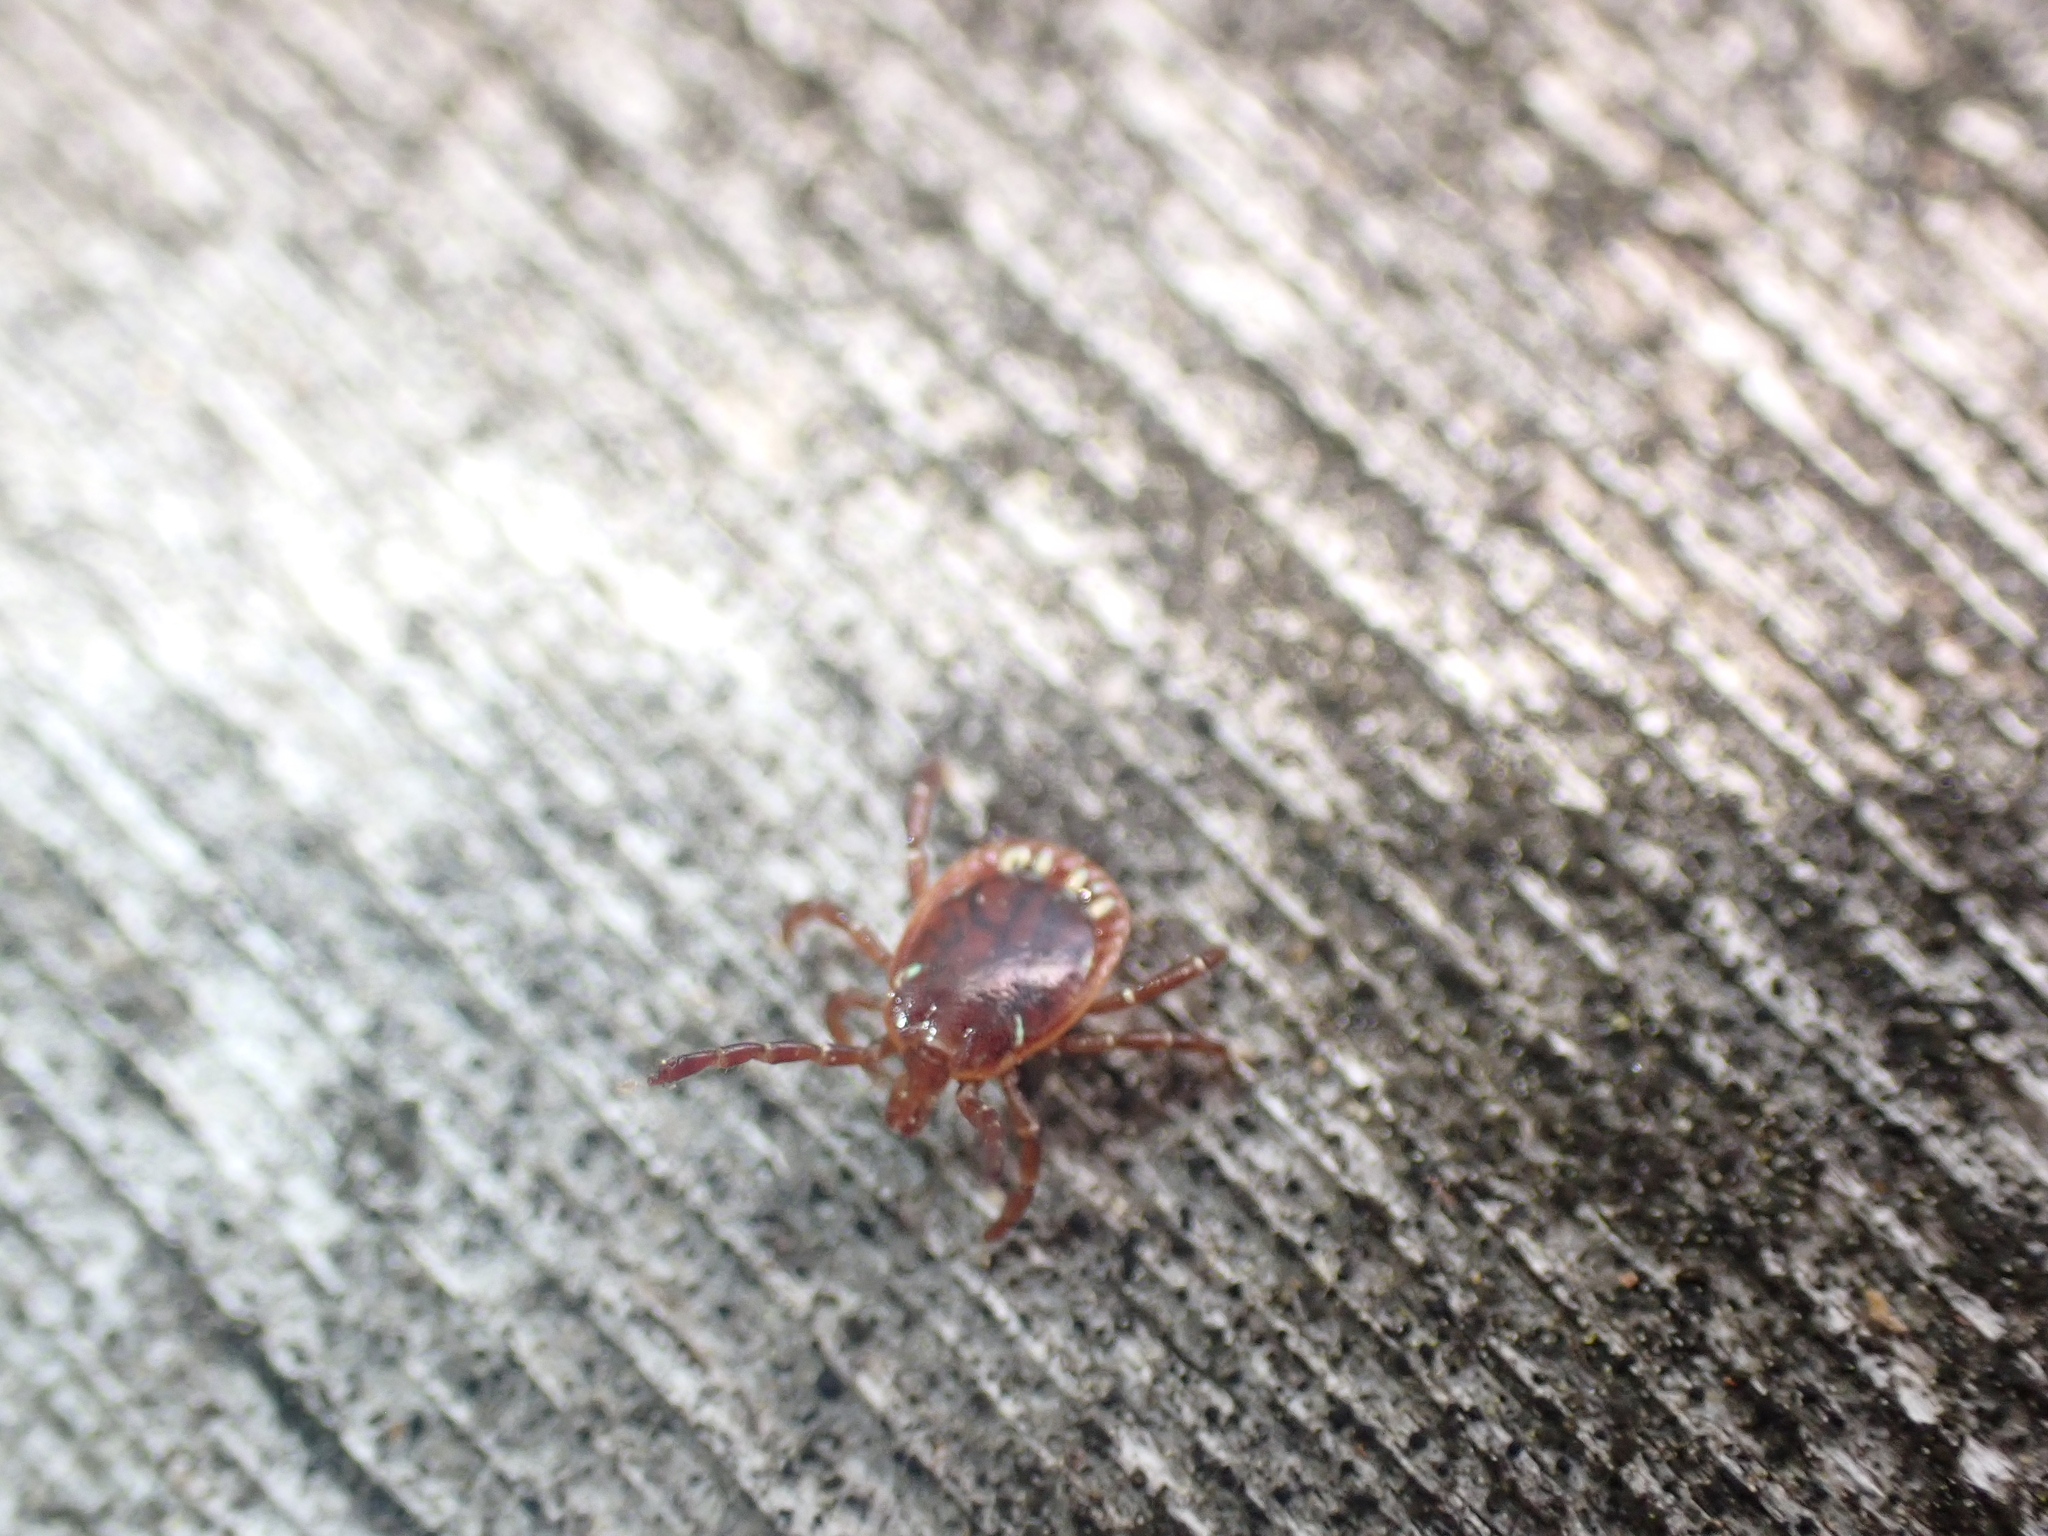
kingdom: Animalia
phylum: Arthropoda
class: Arachnida
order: Ixodida
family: Ixodidae
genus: Amblyomma
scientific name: Amblyomma americanum
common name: Lone star tick
